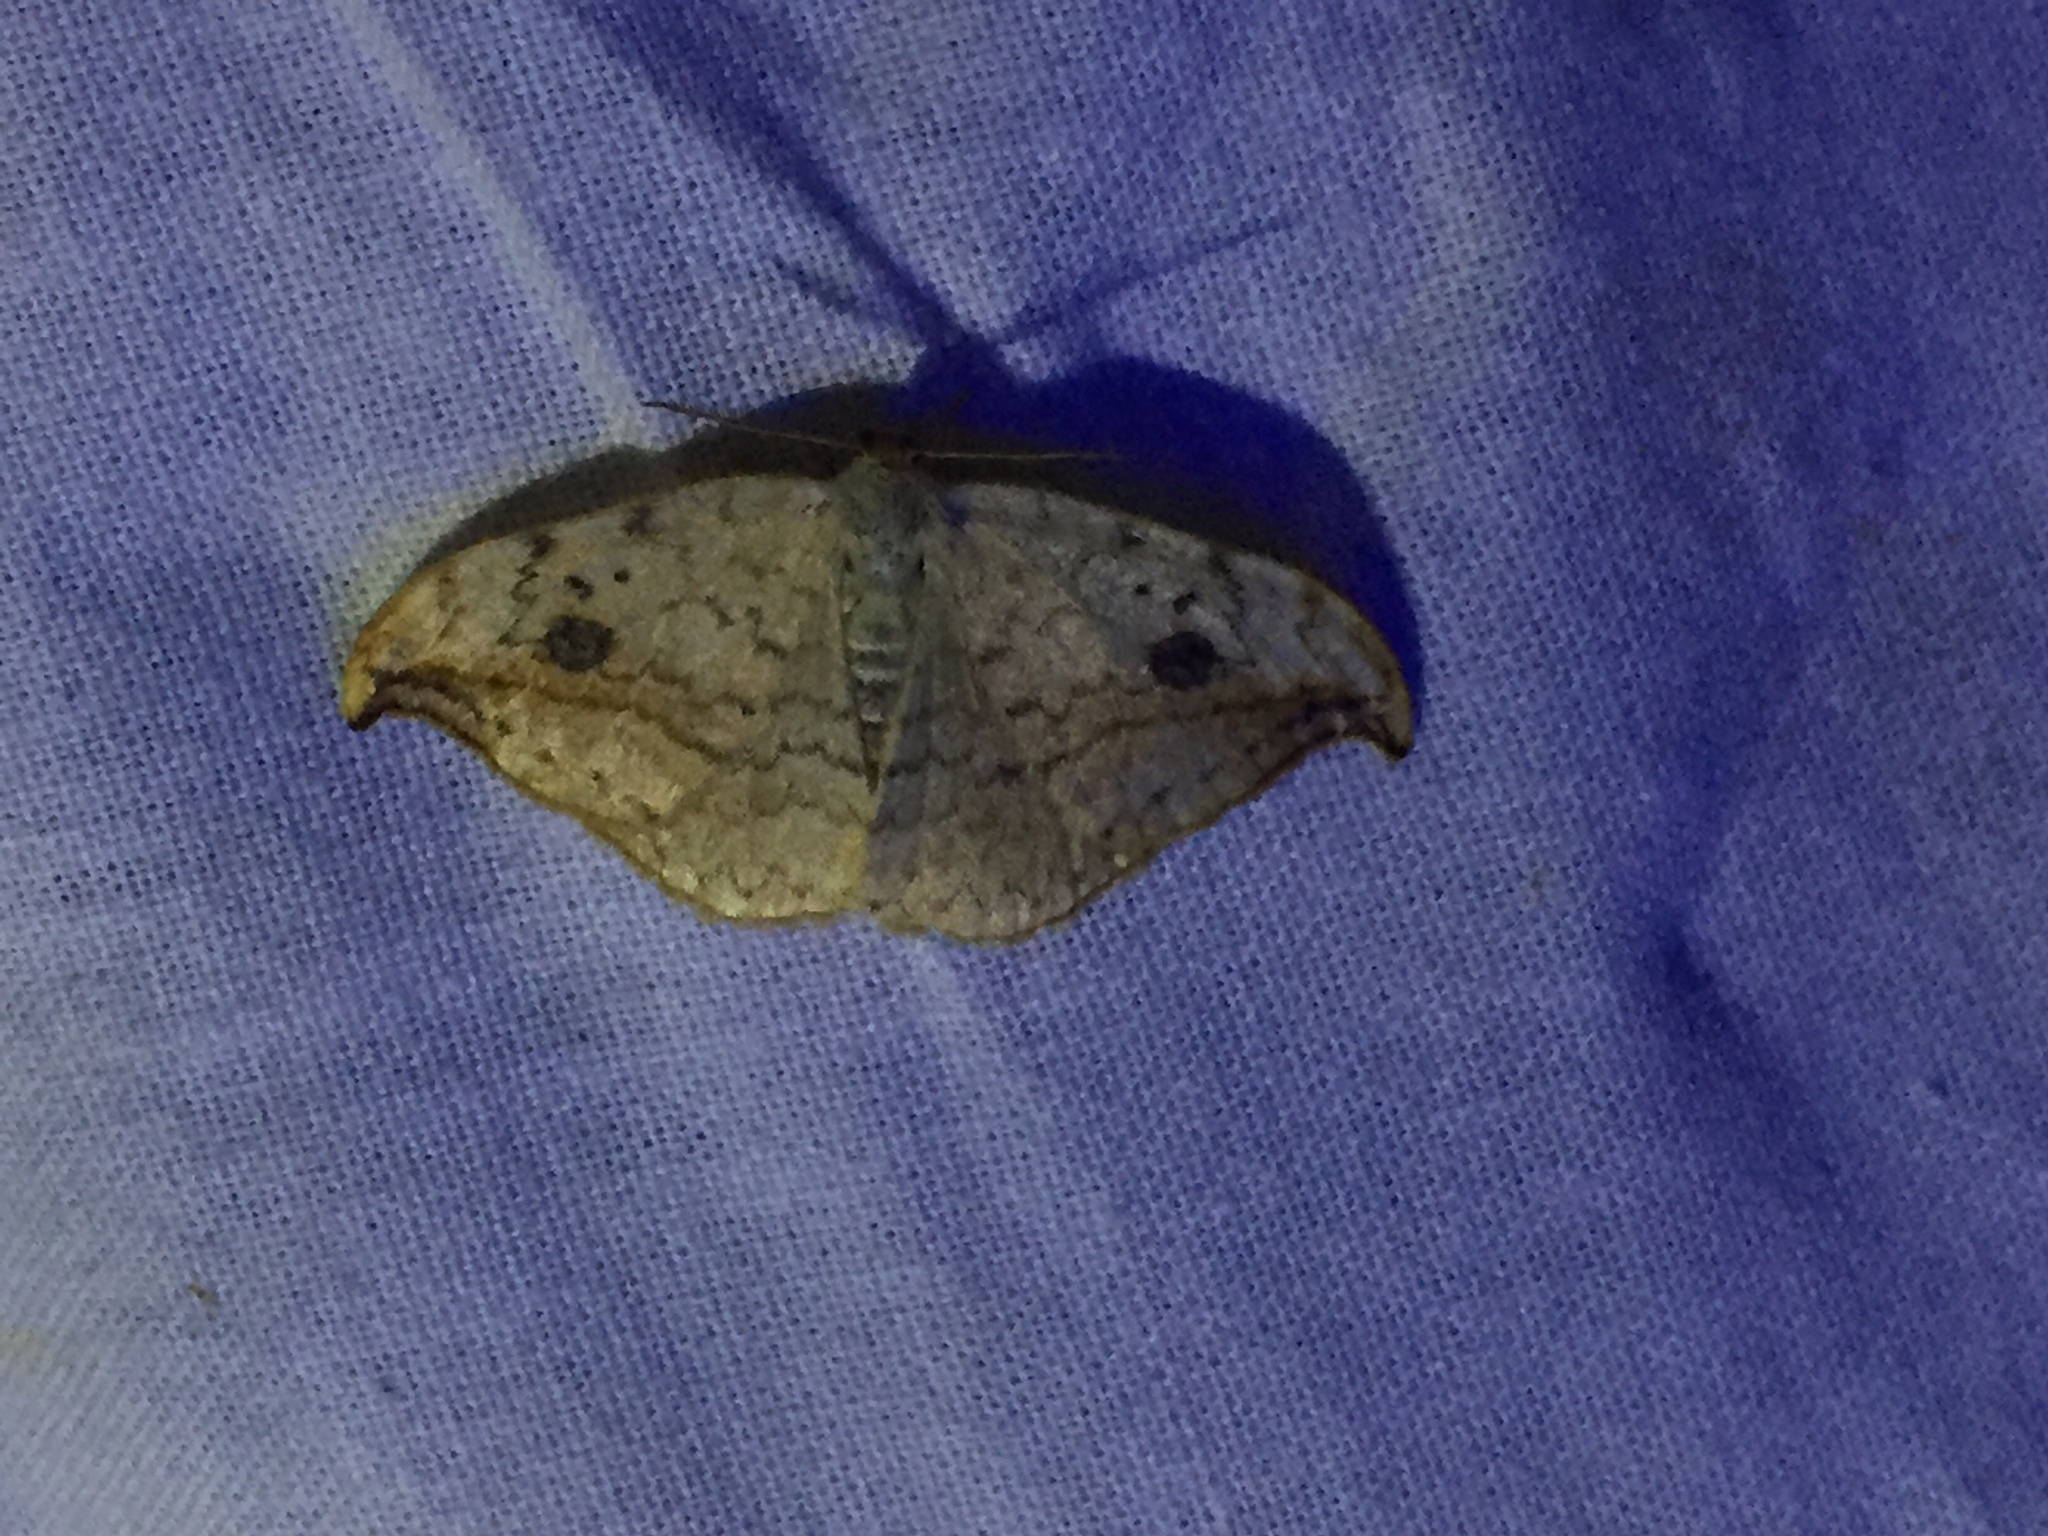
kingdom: Animalia
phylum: Arthropoda
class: Insecta
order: Lepidoptera
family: Drepanidae
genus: Drepana
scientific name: Drepana falcataria
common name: Pebble hook-tip
